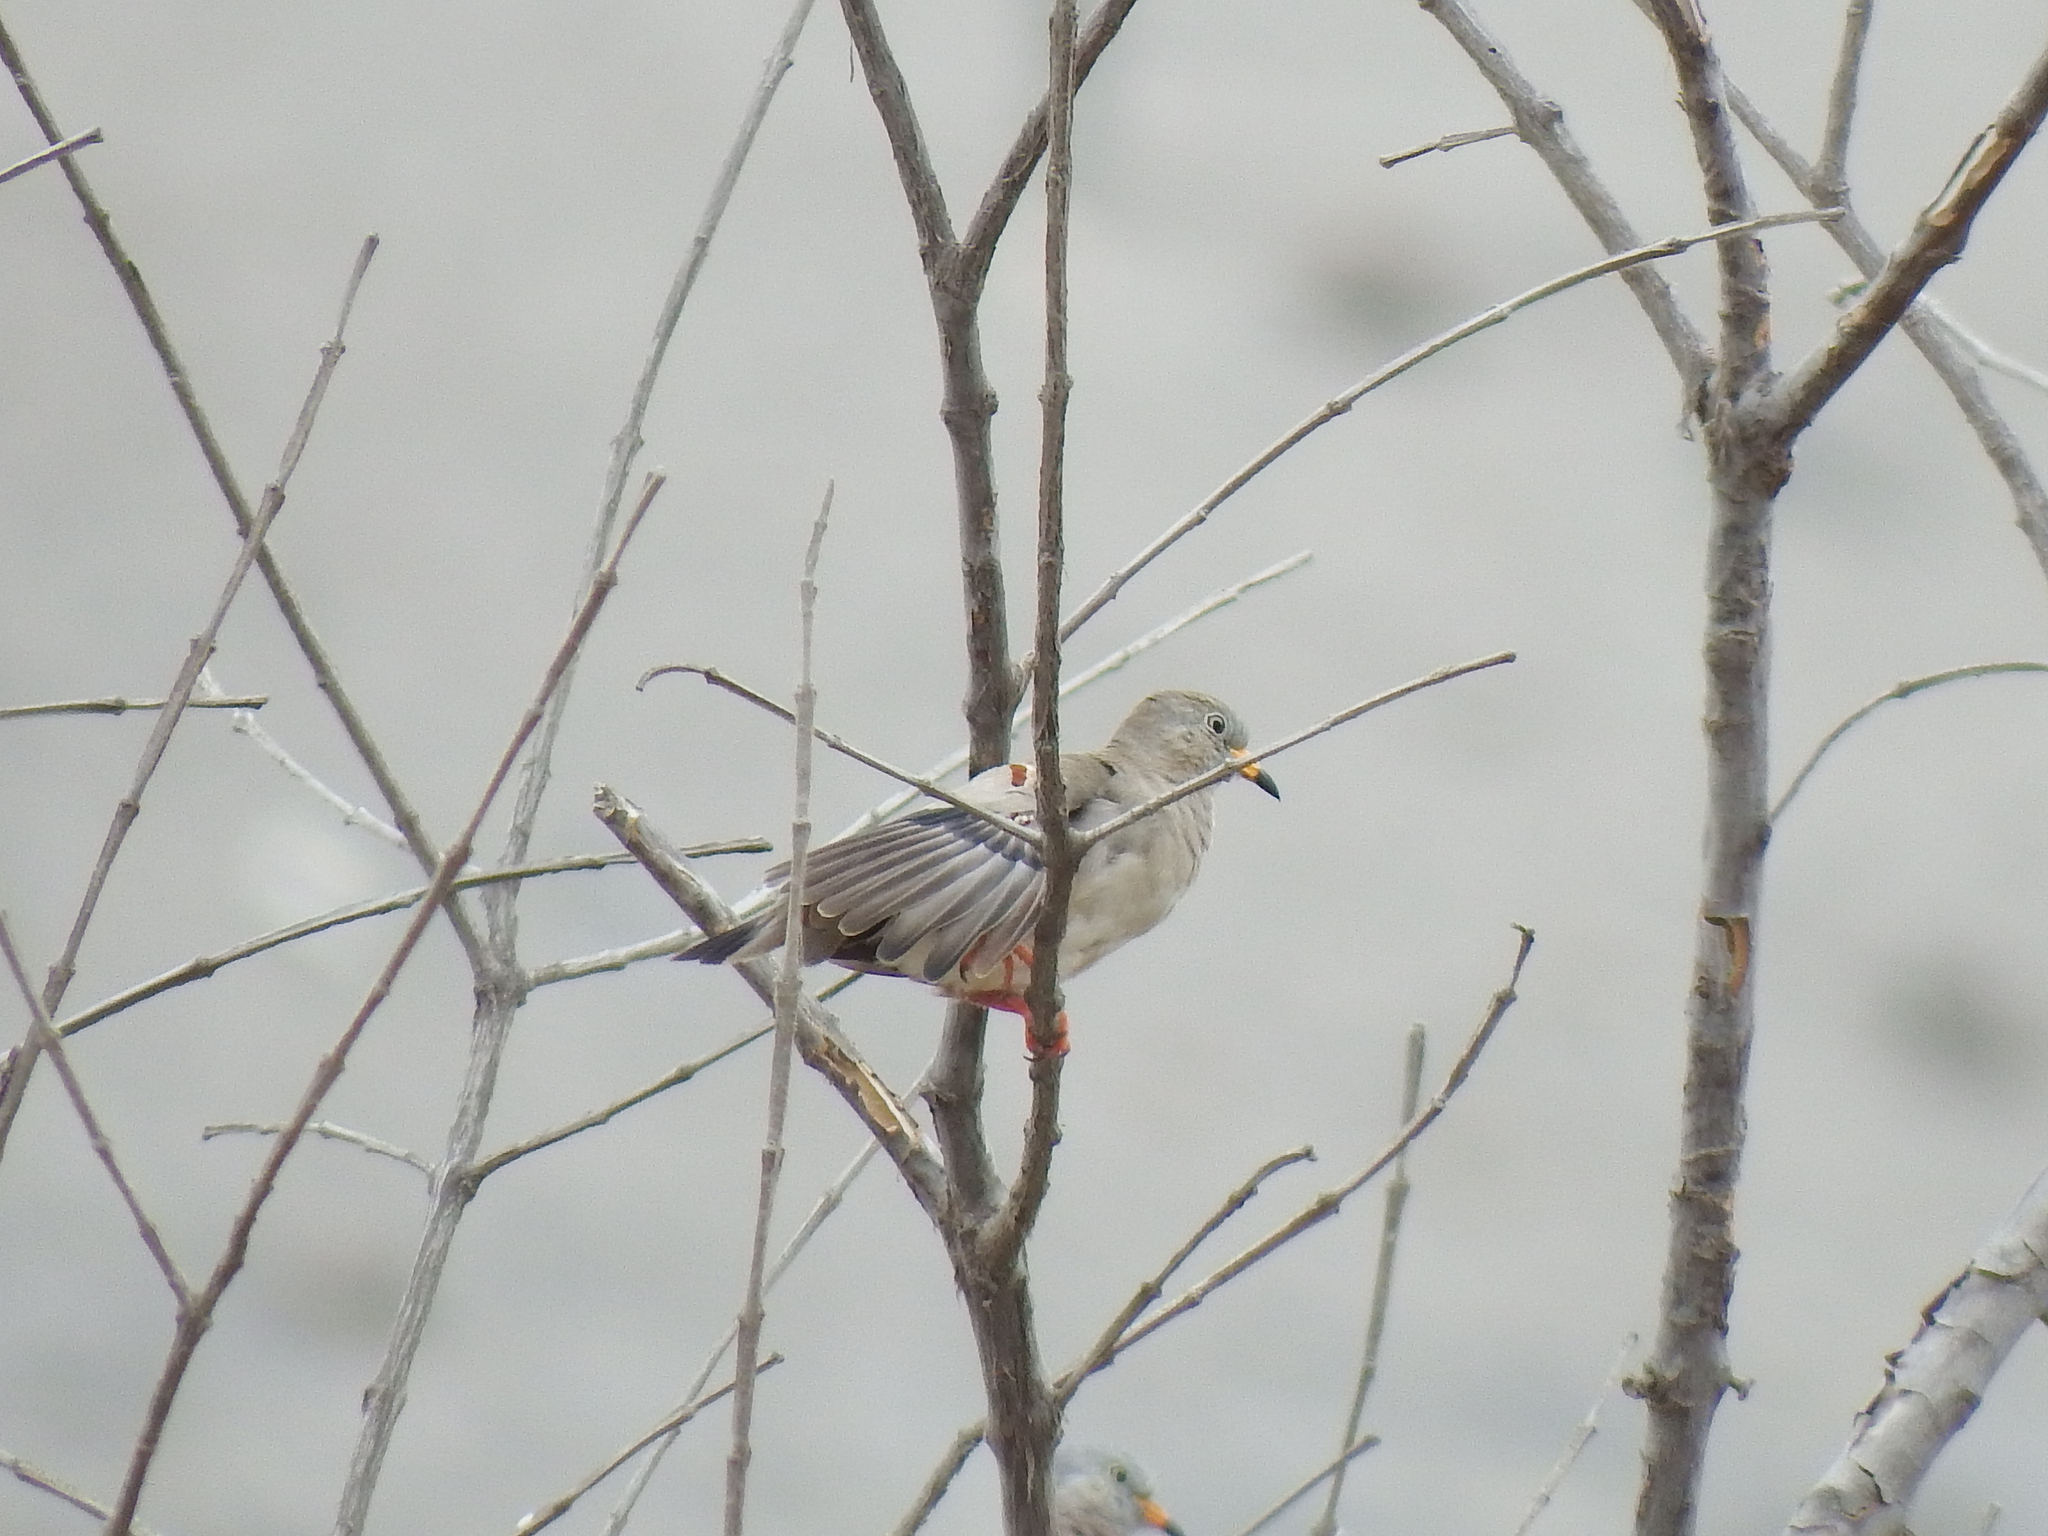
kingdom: Animalia
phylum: Chordata
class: Aves
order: Columbiformes
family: Columbidae
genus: Columbina
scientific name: Columbina cruziana
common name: Croaking ground dove
